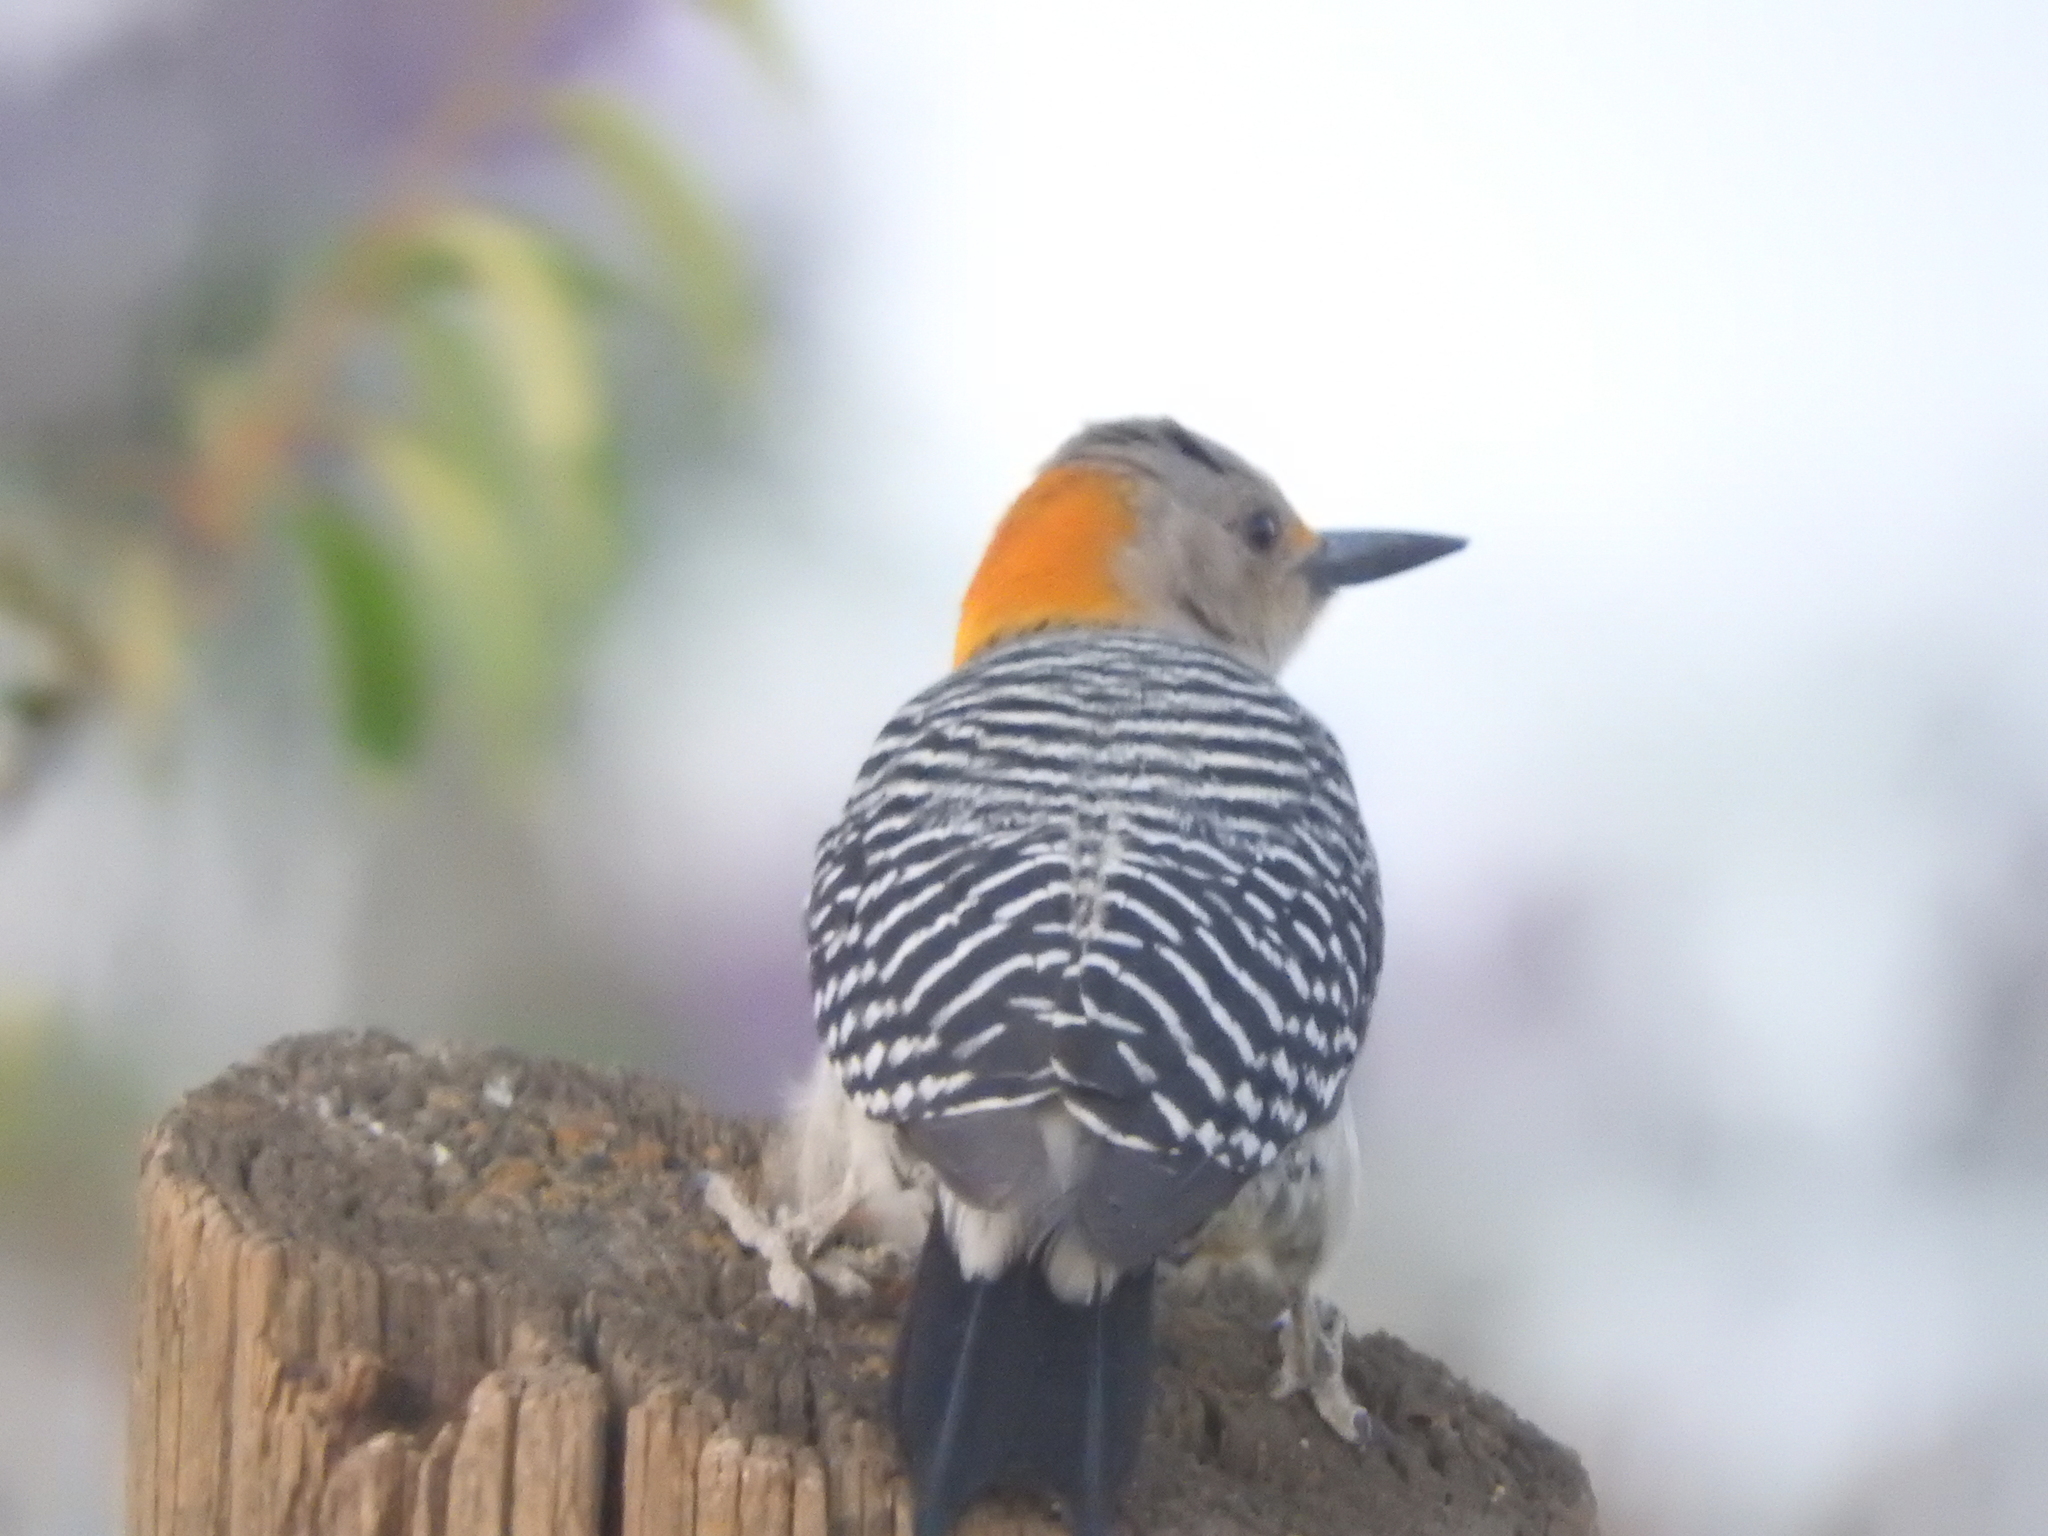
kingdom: Animalia
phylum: Chordata
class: Aves
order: Piciformes
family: Picidae
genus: Melanerpes
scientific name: Melanerpes aurifrons
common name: Golden-fronted woodpecker
